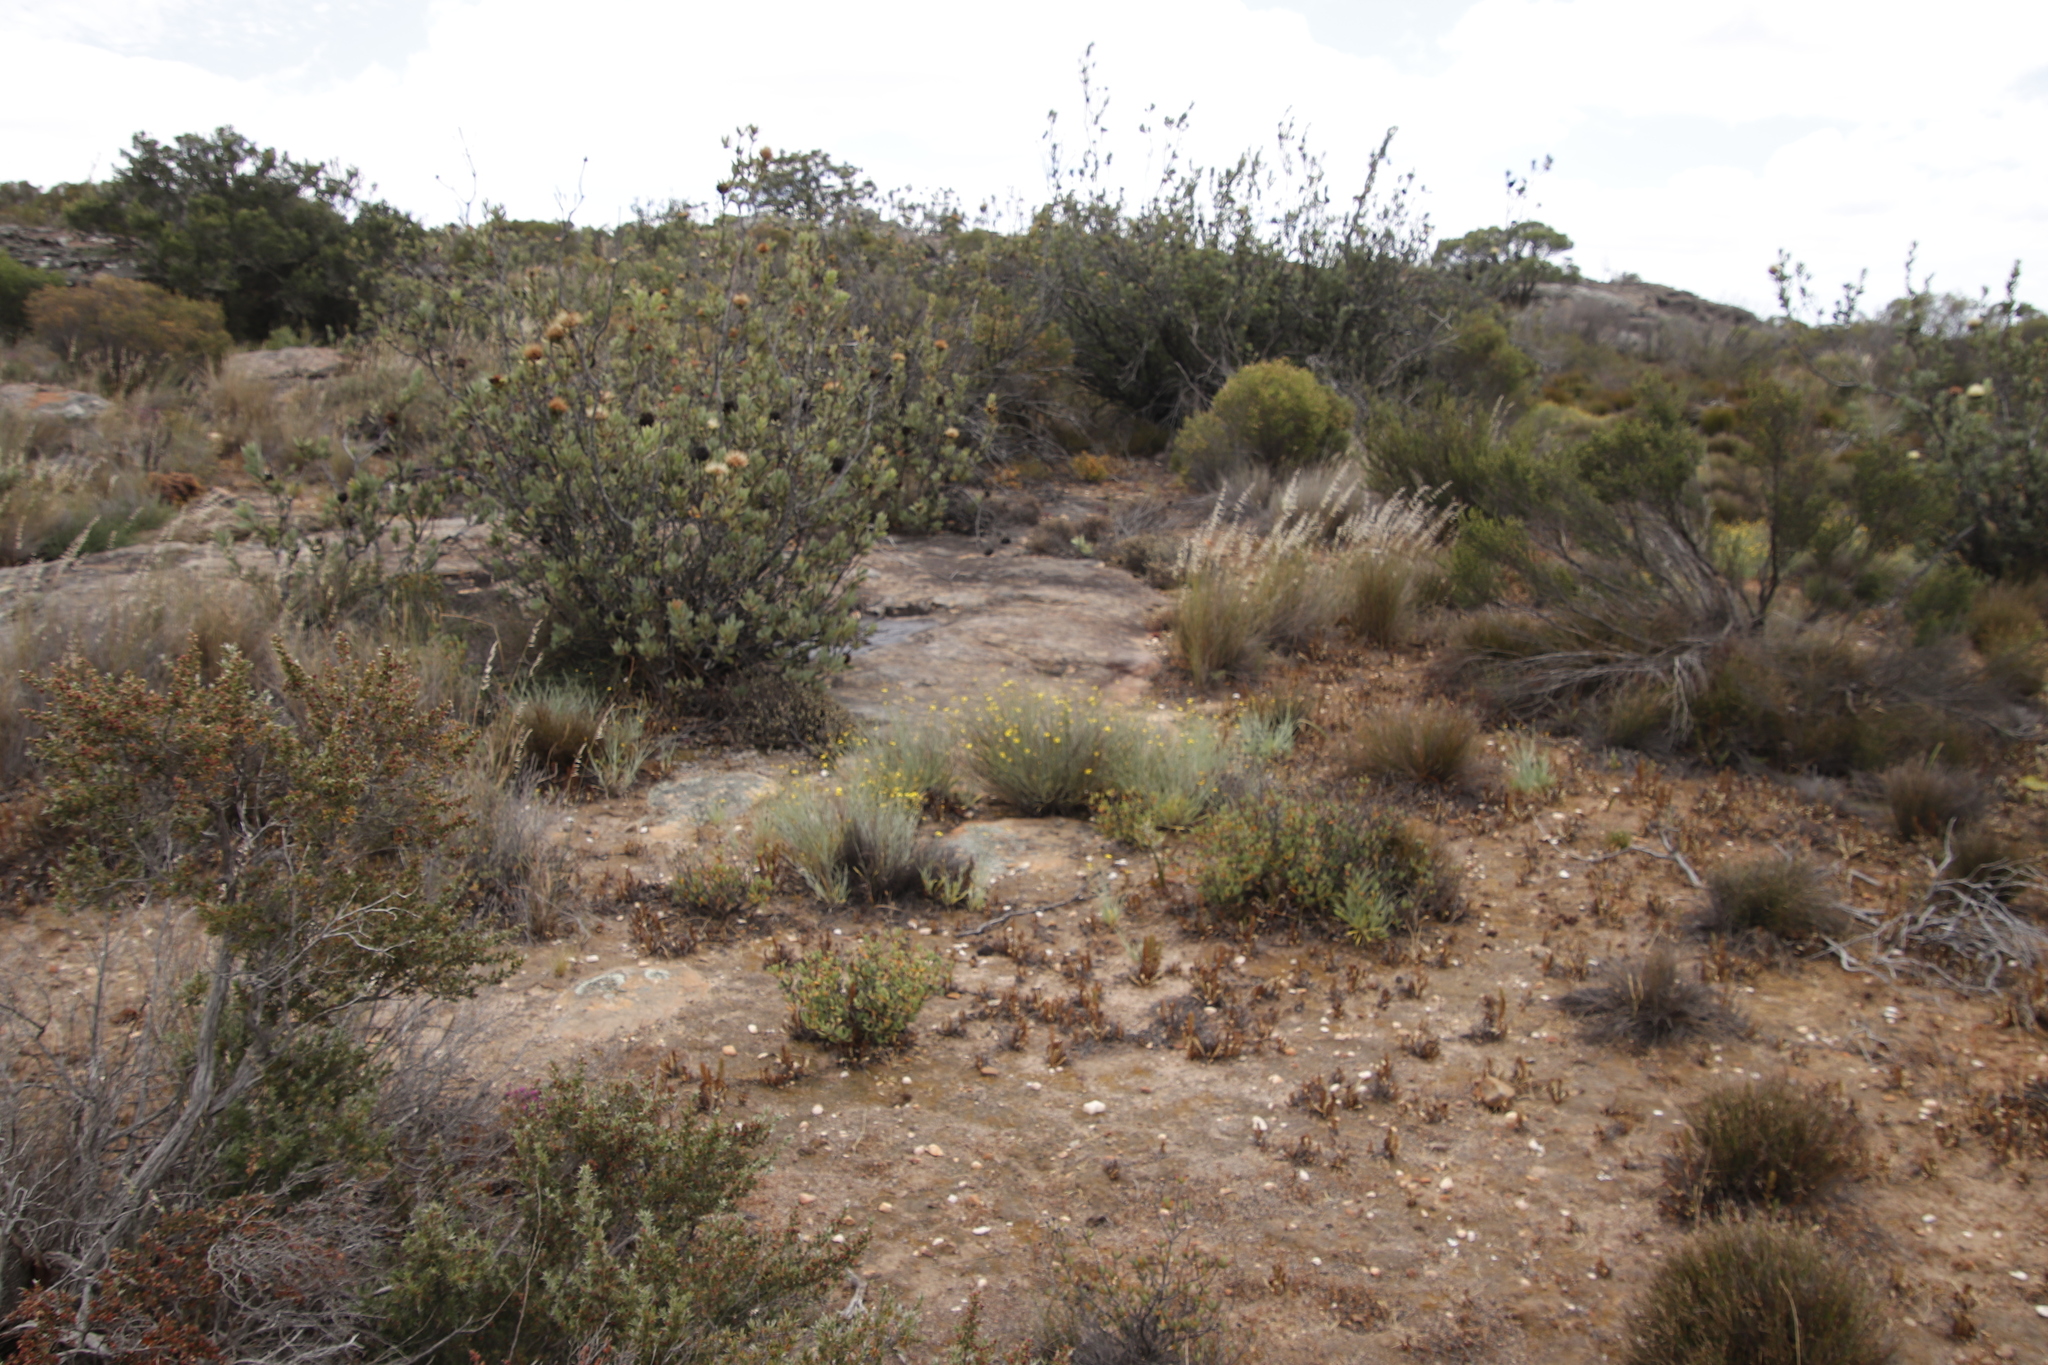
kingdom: Plantae
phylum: Tracheophyta
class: Magnoliopsida
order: Proteales
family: Proteaceae
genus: Protea
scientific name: Protea glabra
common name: Chestnut sugarbush
